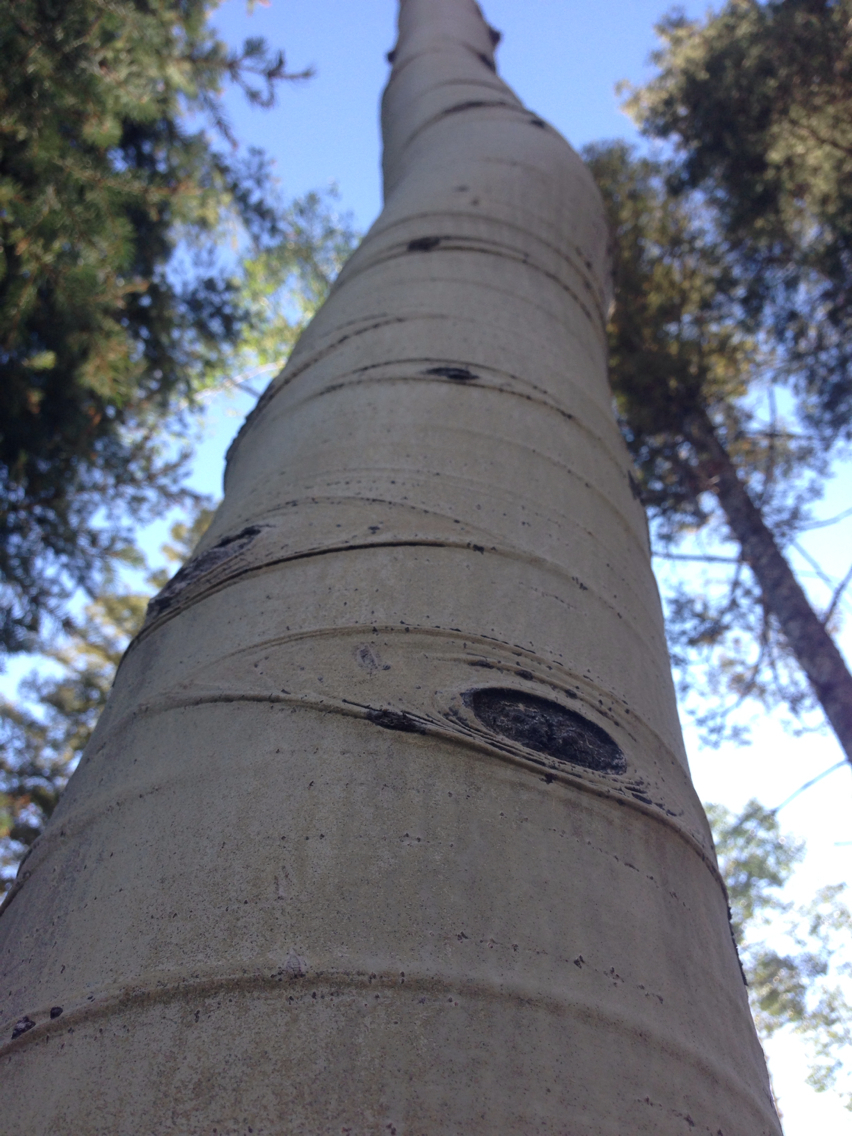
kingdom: Plantae
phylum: Tracheophyta
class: Magnoliopsida
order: Malpighiales
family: Salicaceae
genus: Populus
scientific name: Populus tremuloides
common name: Quaking aspen
